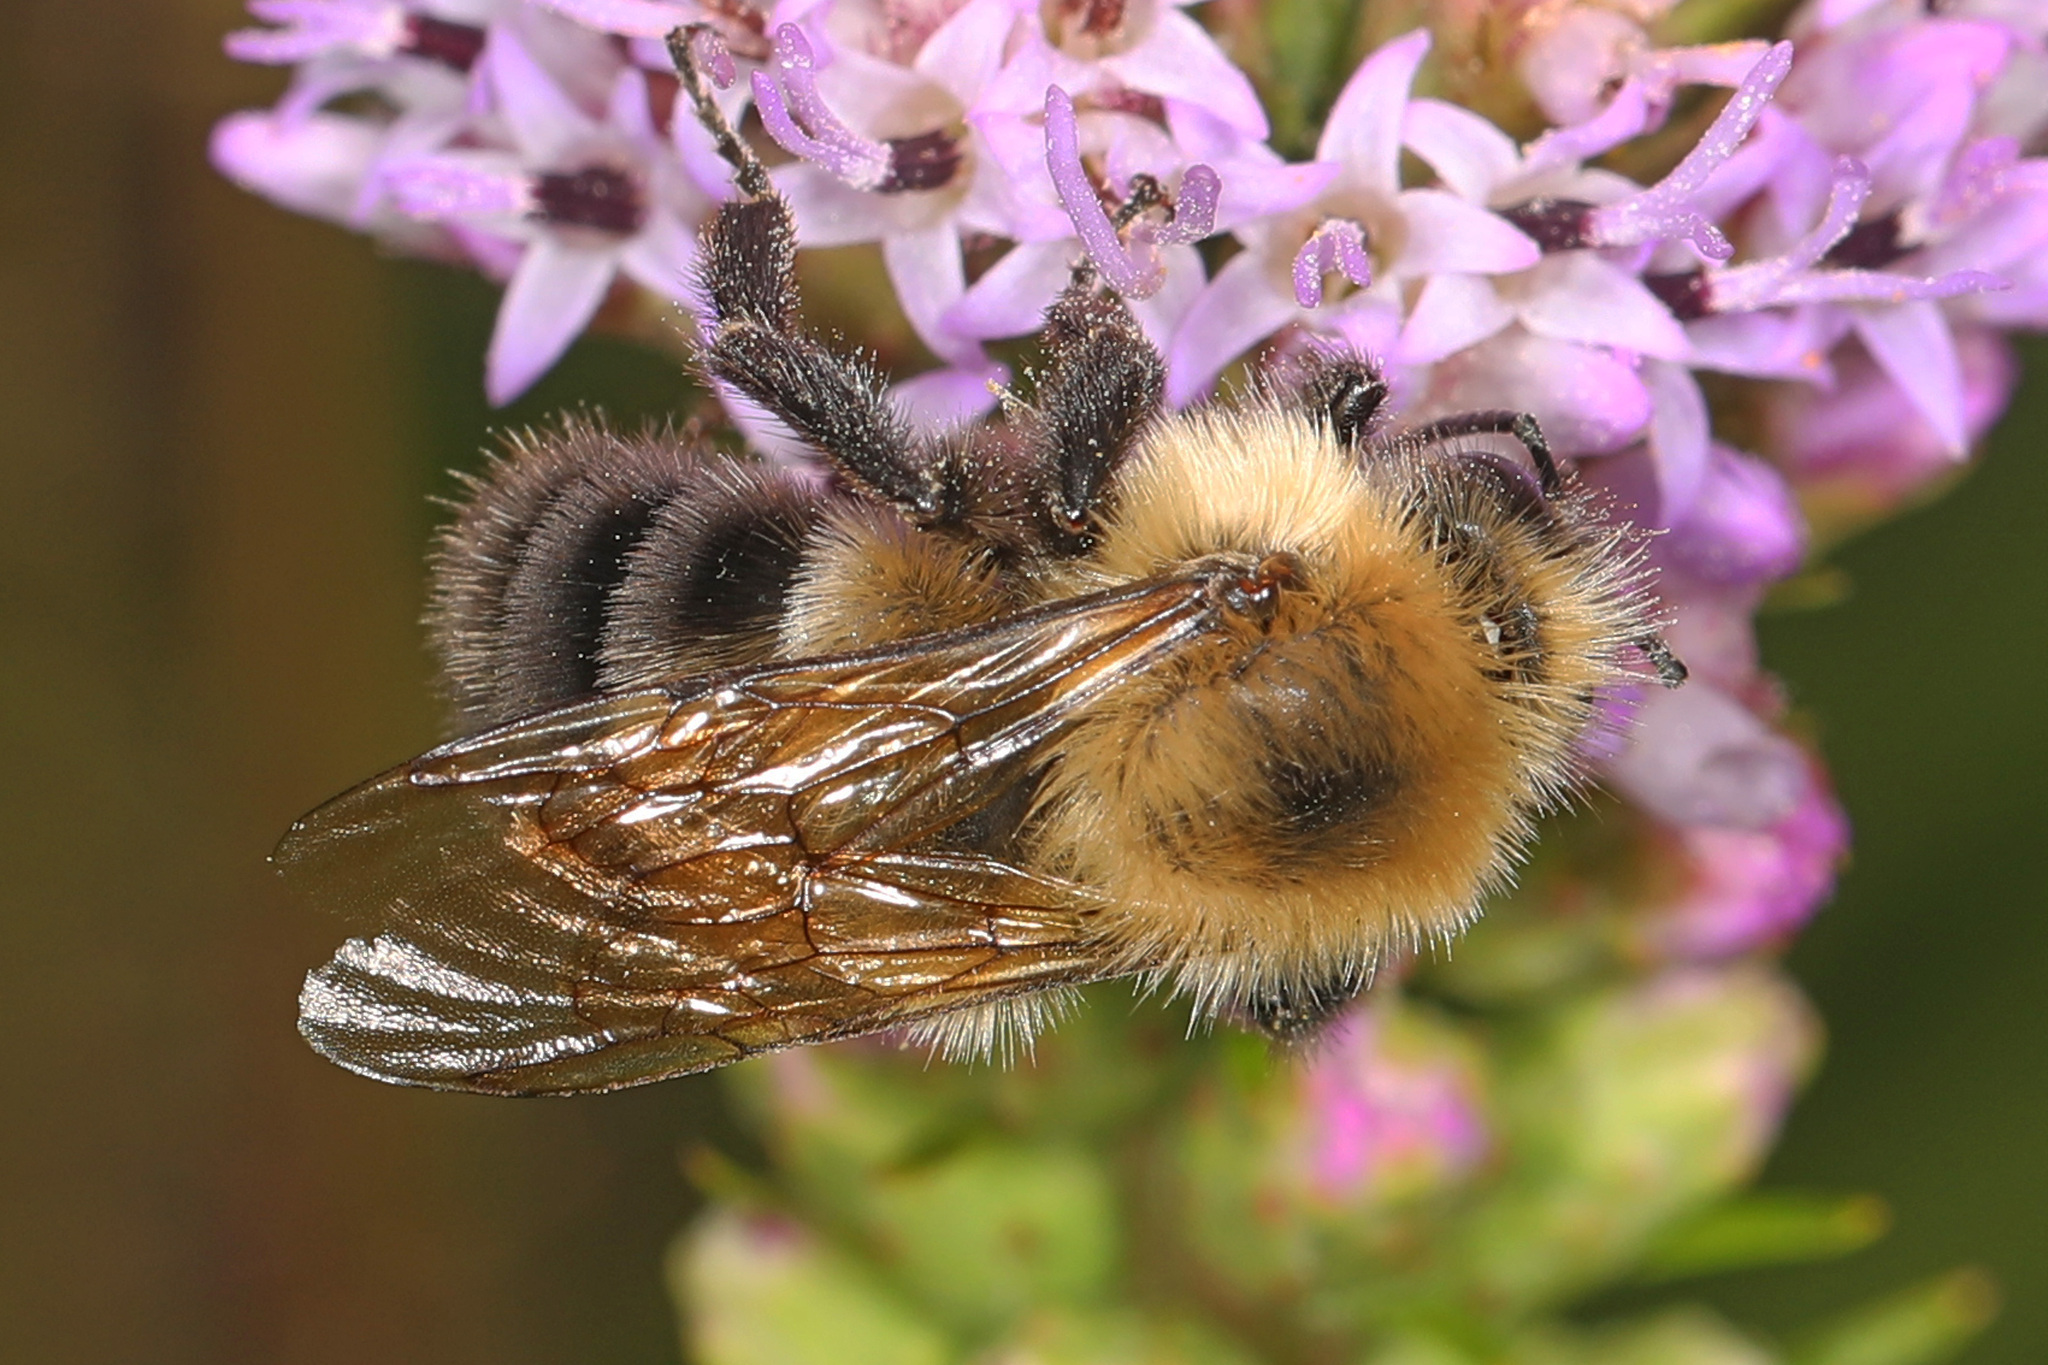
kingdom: Animalia
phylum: Arthropoda
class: Insecta
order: Hymenoptera
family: Apidae
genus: Bombus
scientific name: Bombus bimaculatus
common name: Two-spotted bumble bee
